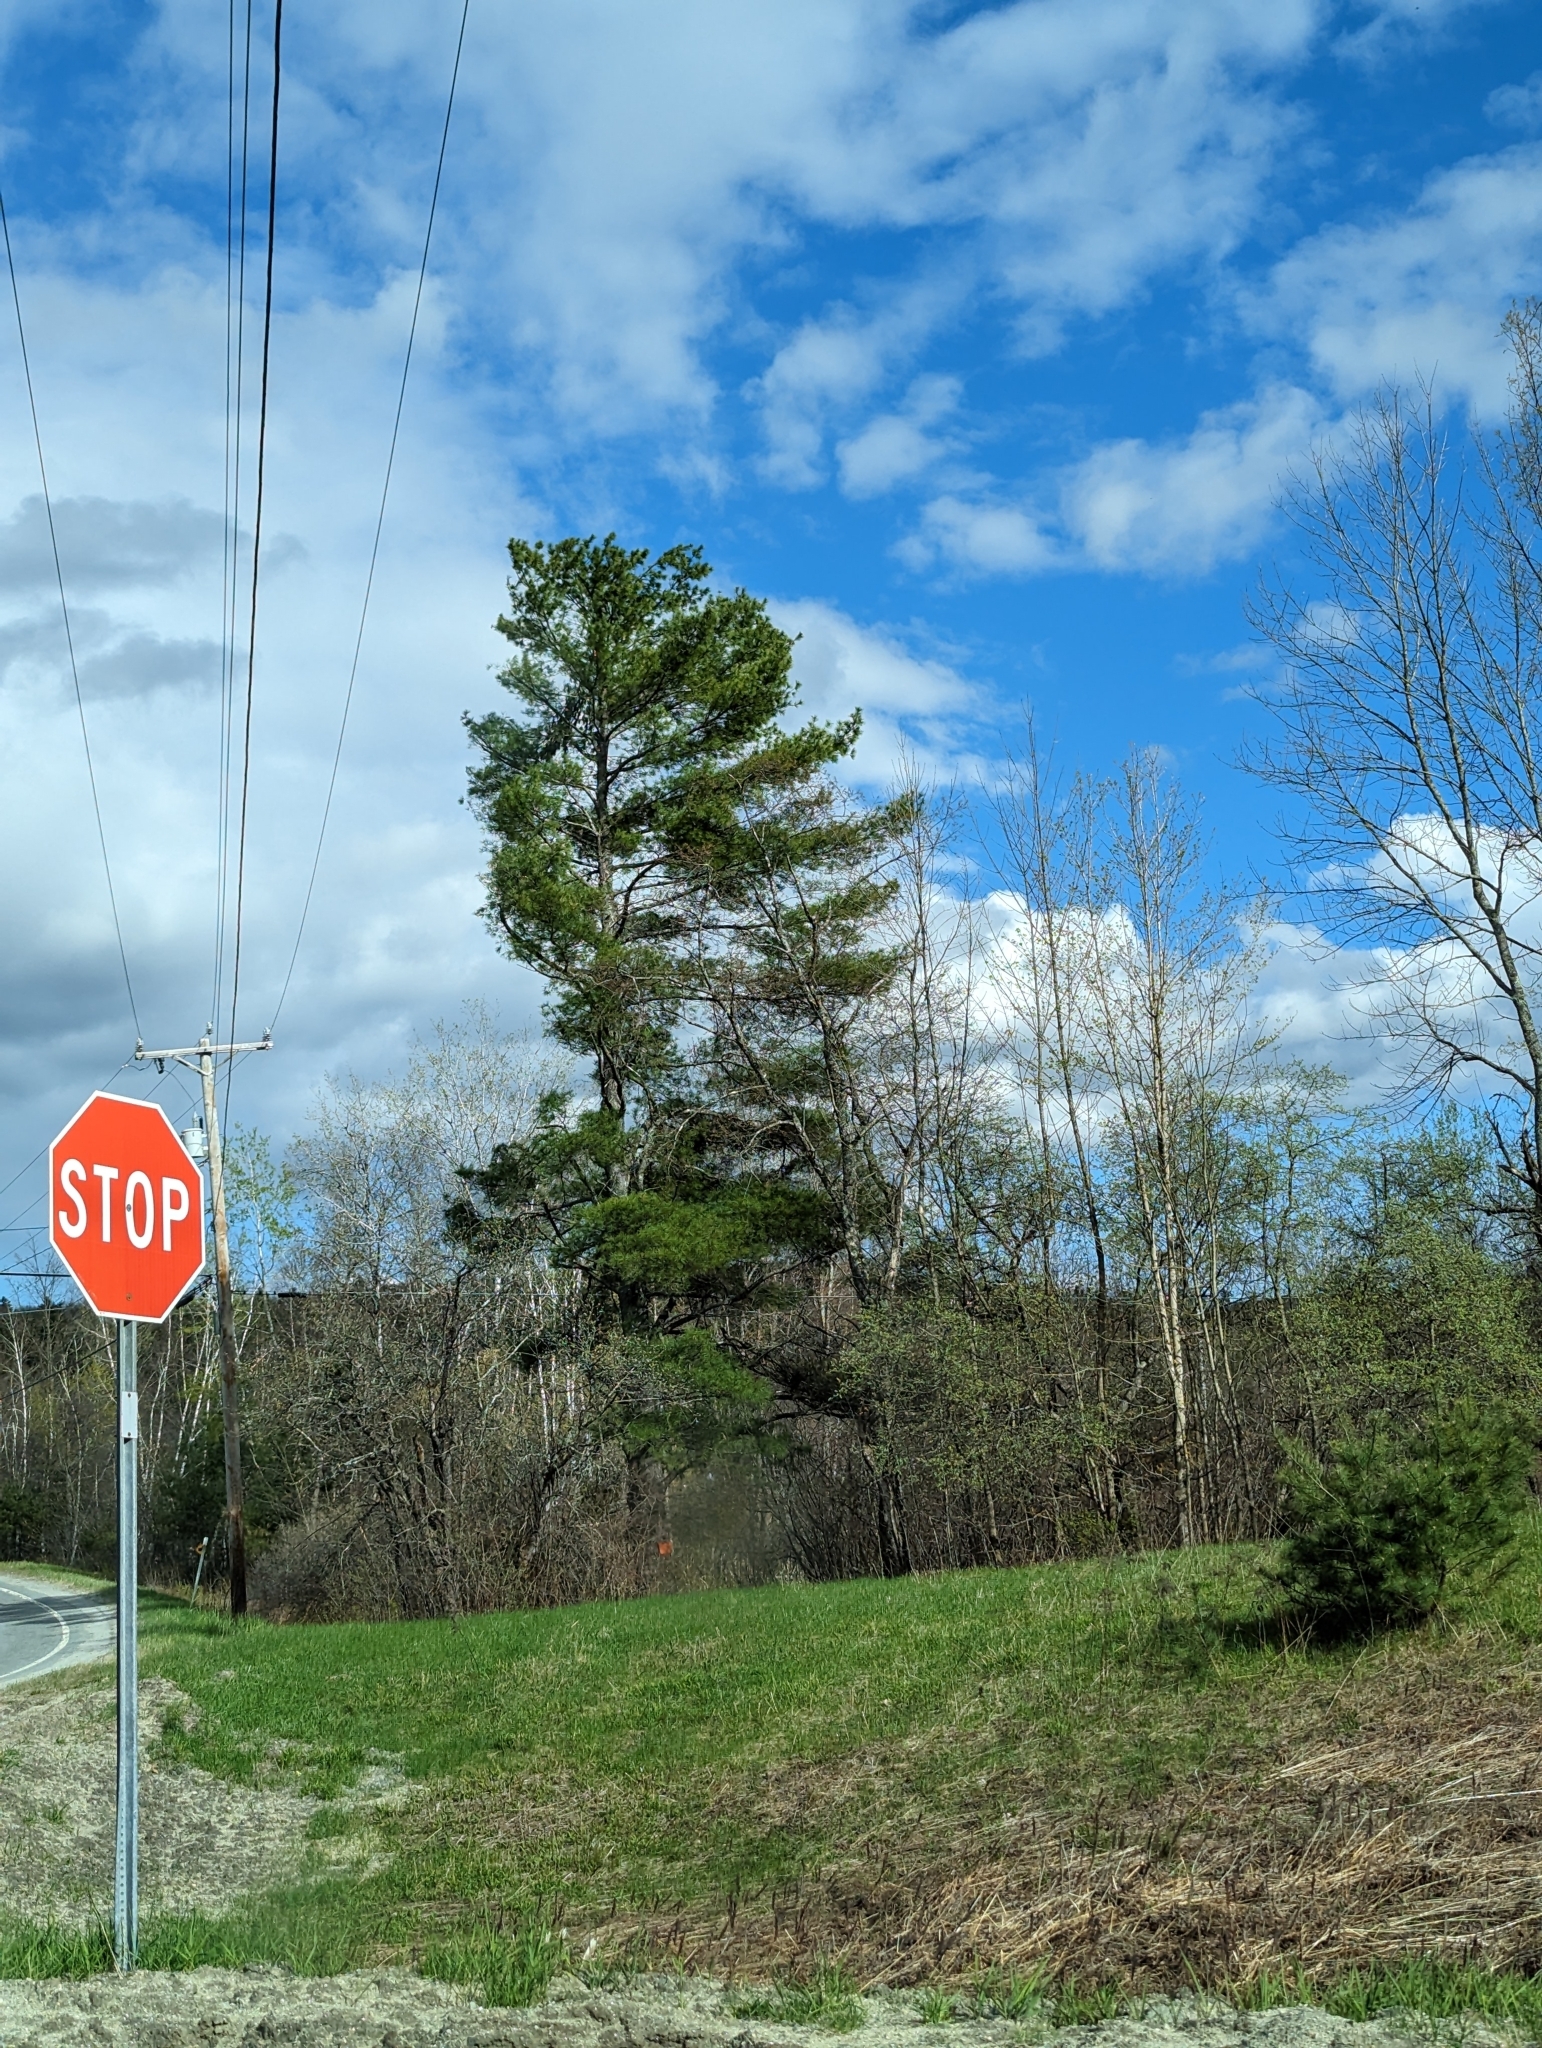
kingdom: Plantae
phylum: Tracheophyta
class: Pinopsida
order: Pinales
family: Pinaceae
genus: Pinus
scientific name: Pinus strobus
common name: Weymouth pine
